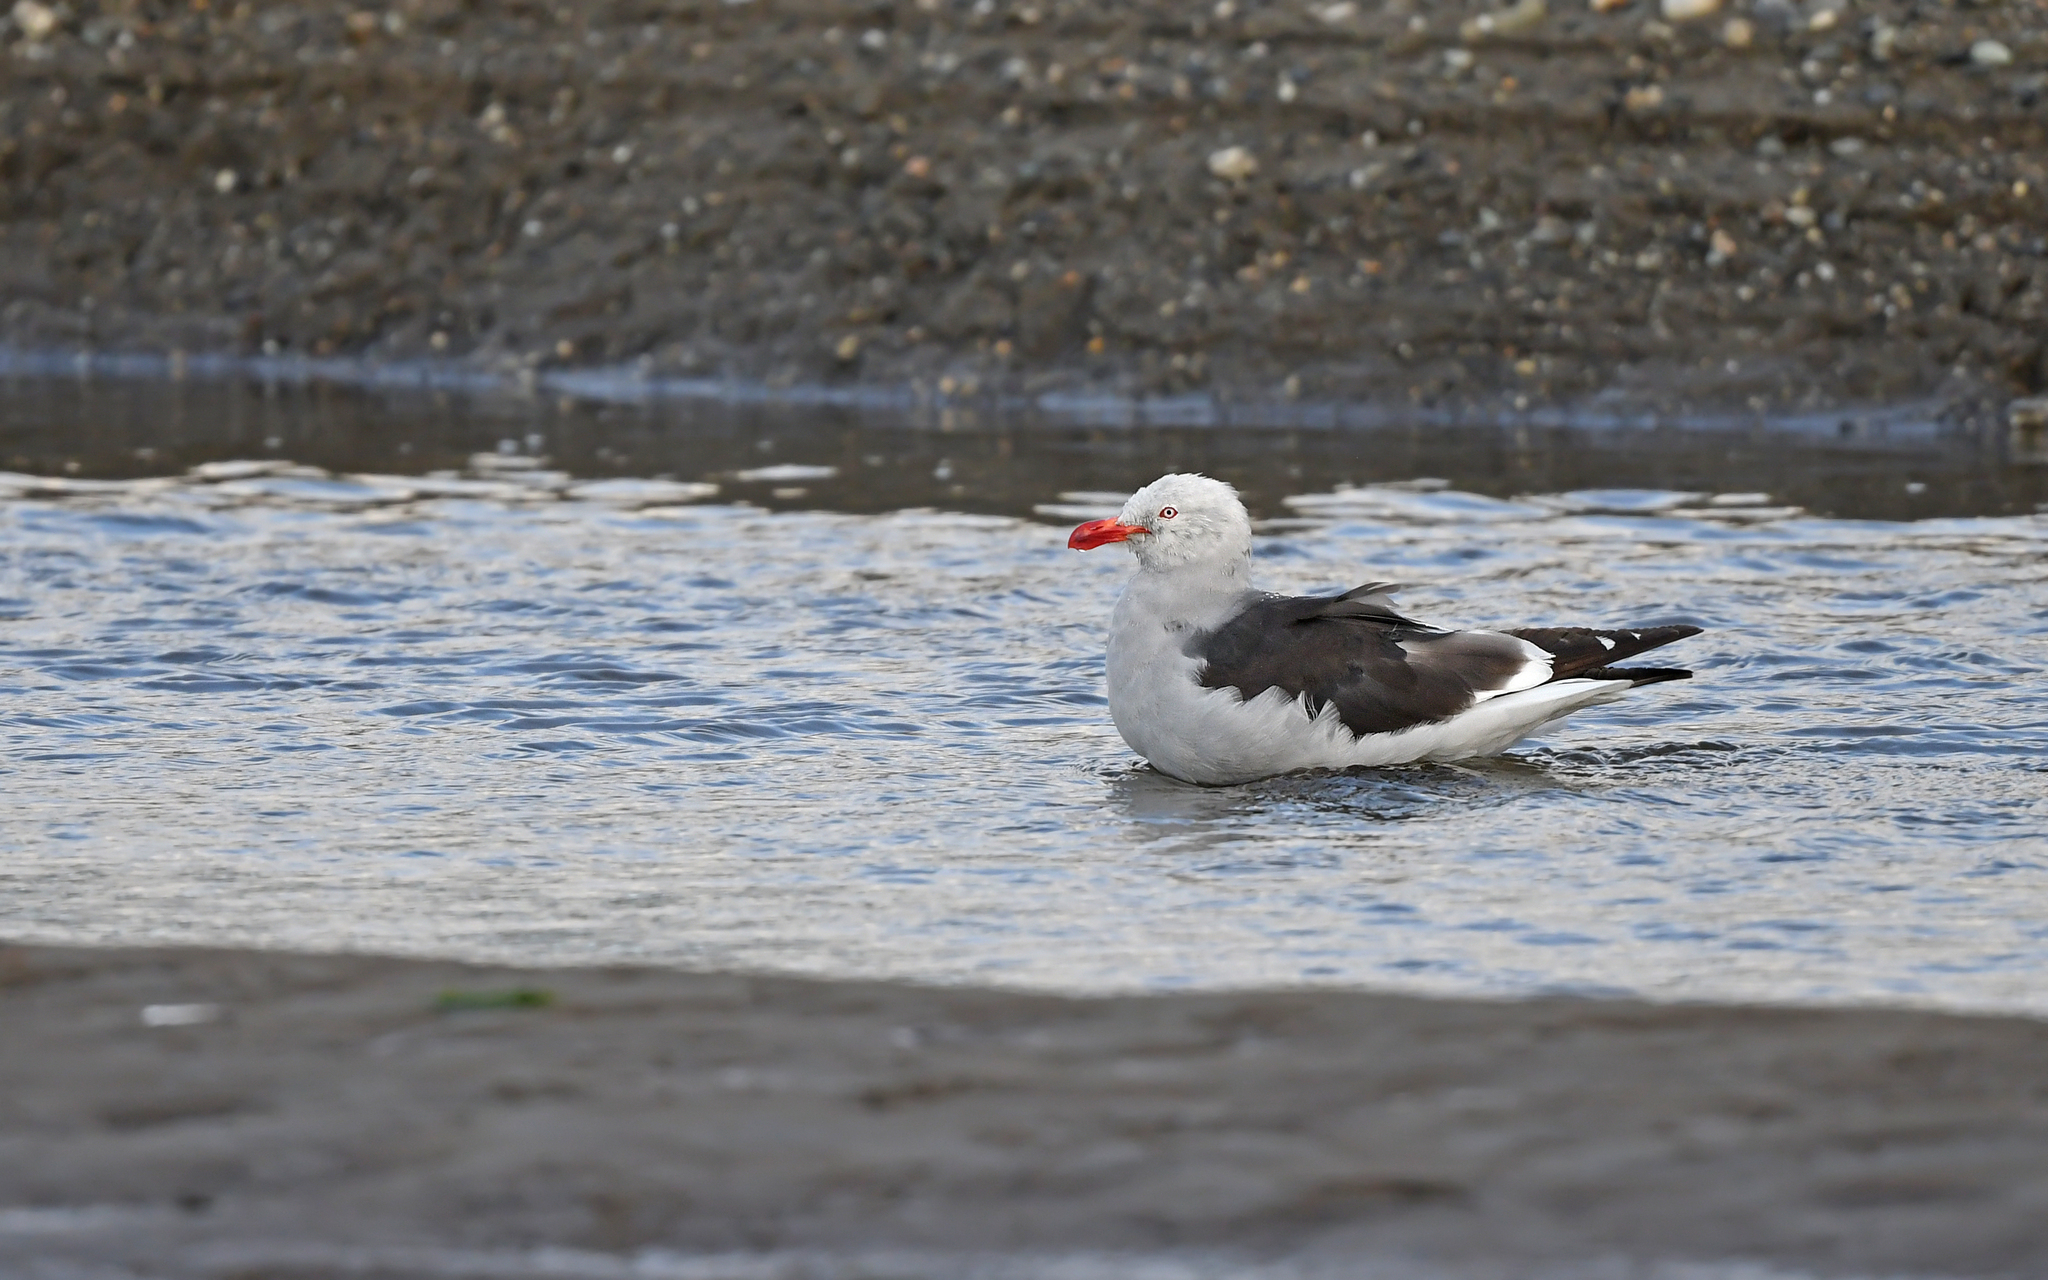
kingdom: Animalia
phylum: Chordata
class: Aves
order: Charadriiformes
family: Laridae
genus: Leucophaeus
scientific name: Leucophaeus scoresbii
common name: Dolphin gull
